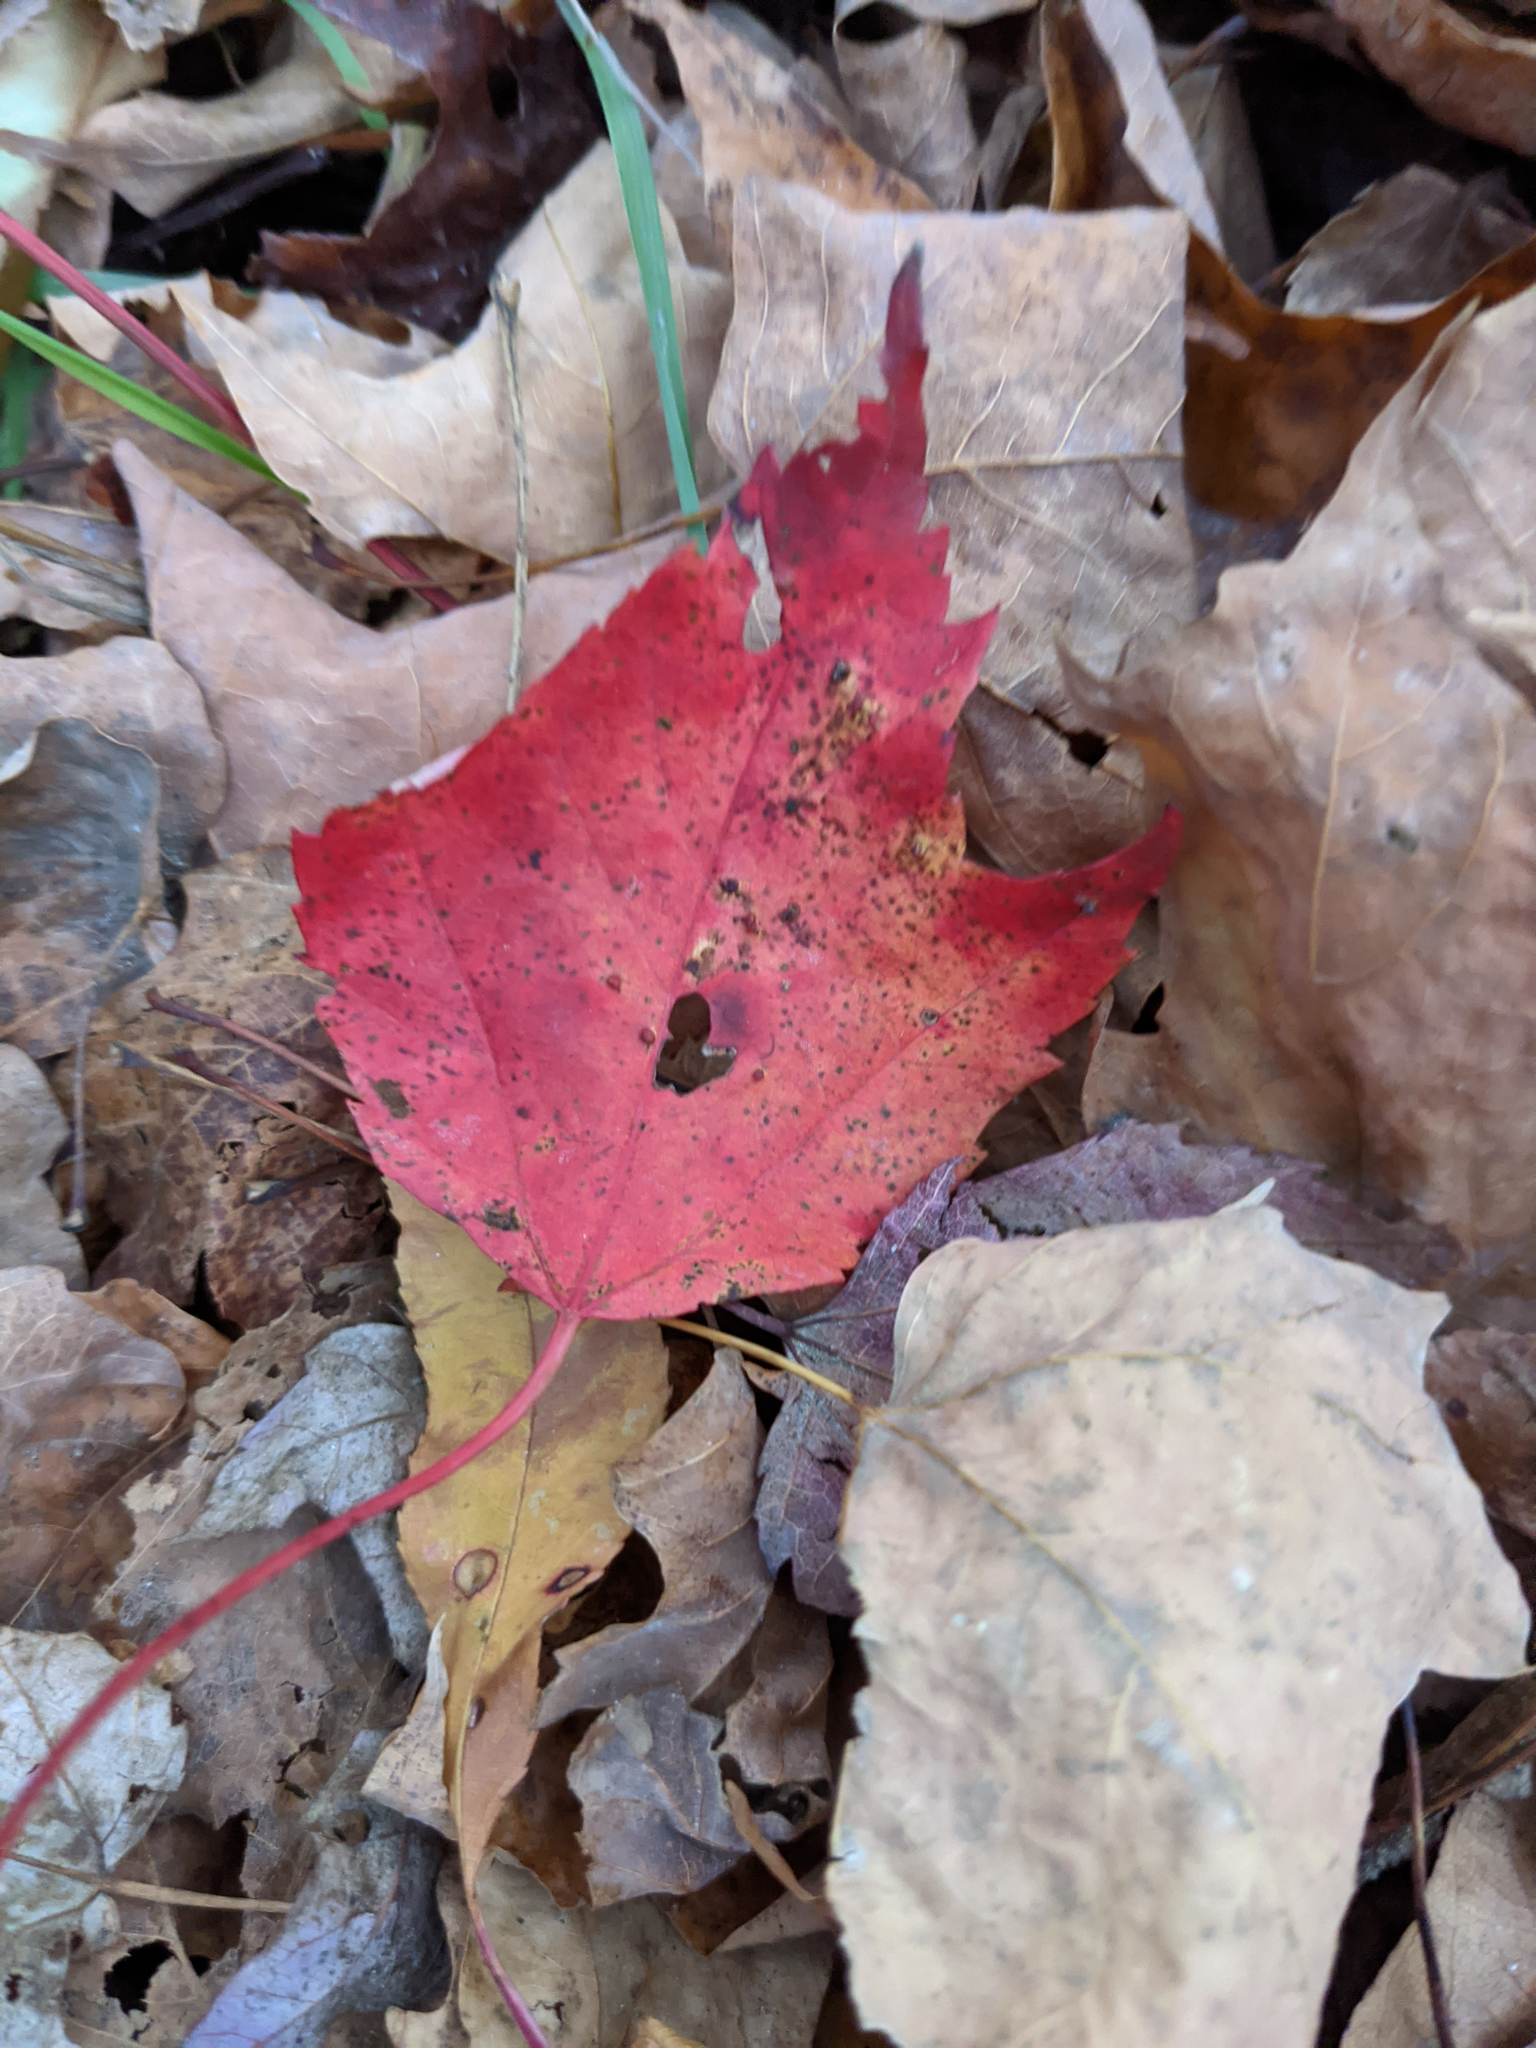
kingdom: Plantae
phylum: Tracheophyta
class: Magnoliopsida
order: Sapindales
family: Sapindaceae
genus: Acer
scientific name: Acer rubrum
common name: Red maple
